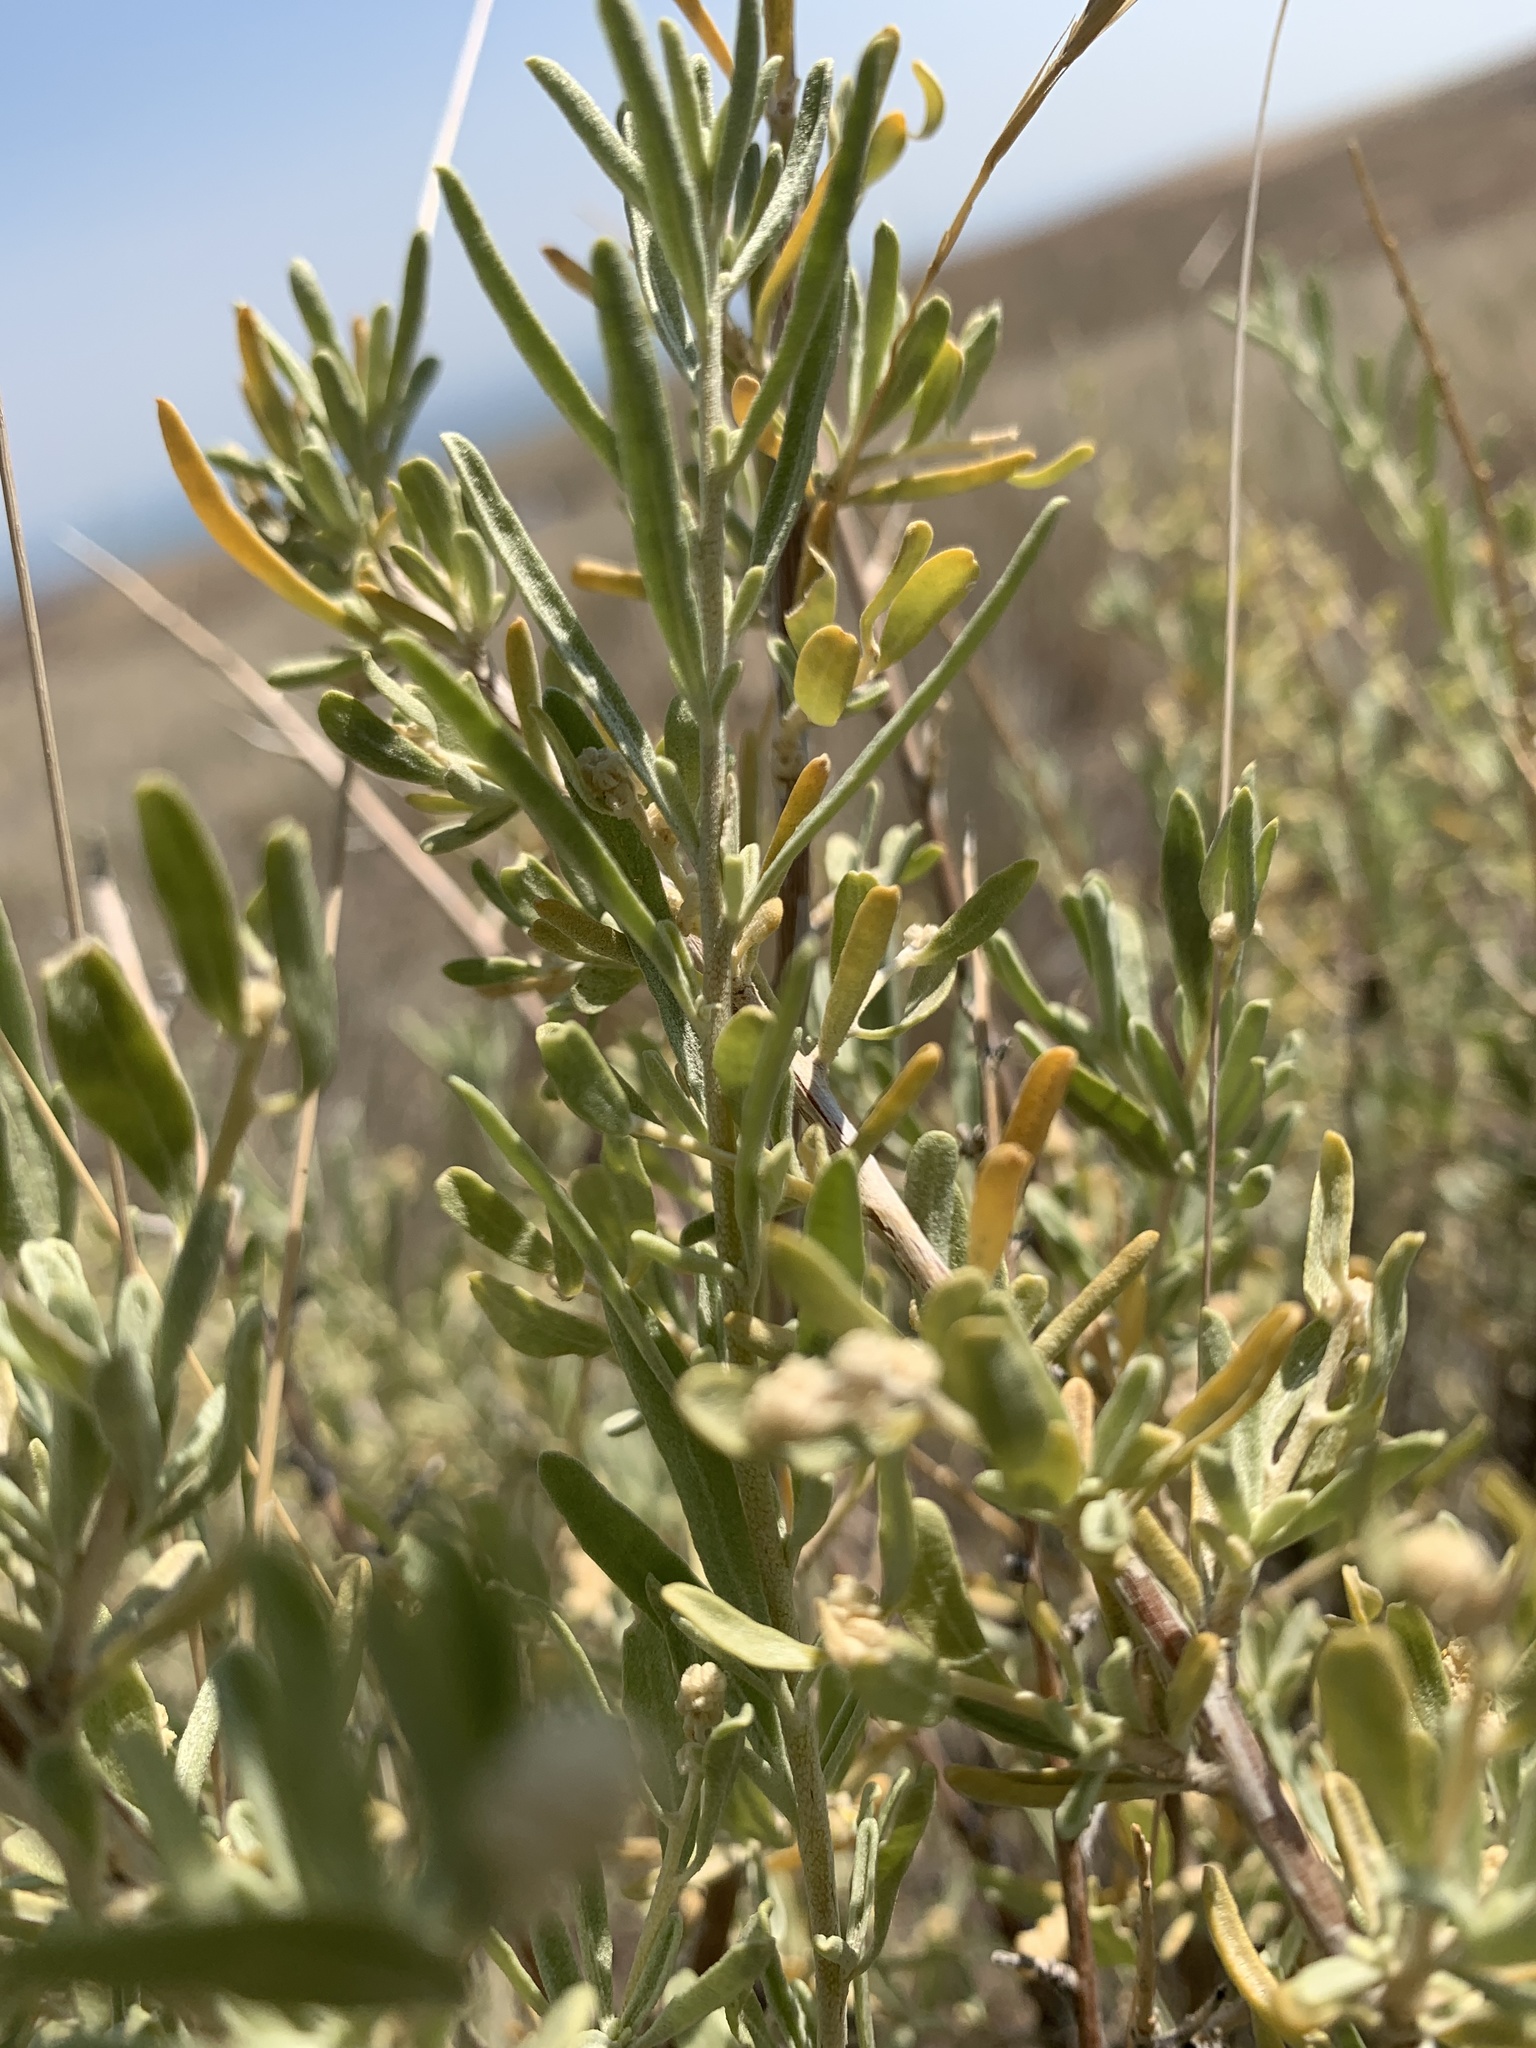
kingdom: Plantae
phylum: Tracheophyta
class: Magnoliopsida
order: Caryophyllales
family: Amaranthaceae
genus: Atriplex
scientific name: Atriplex canescens
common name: Four-wing saltbush
